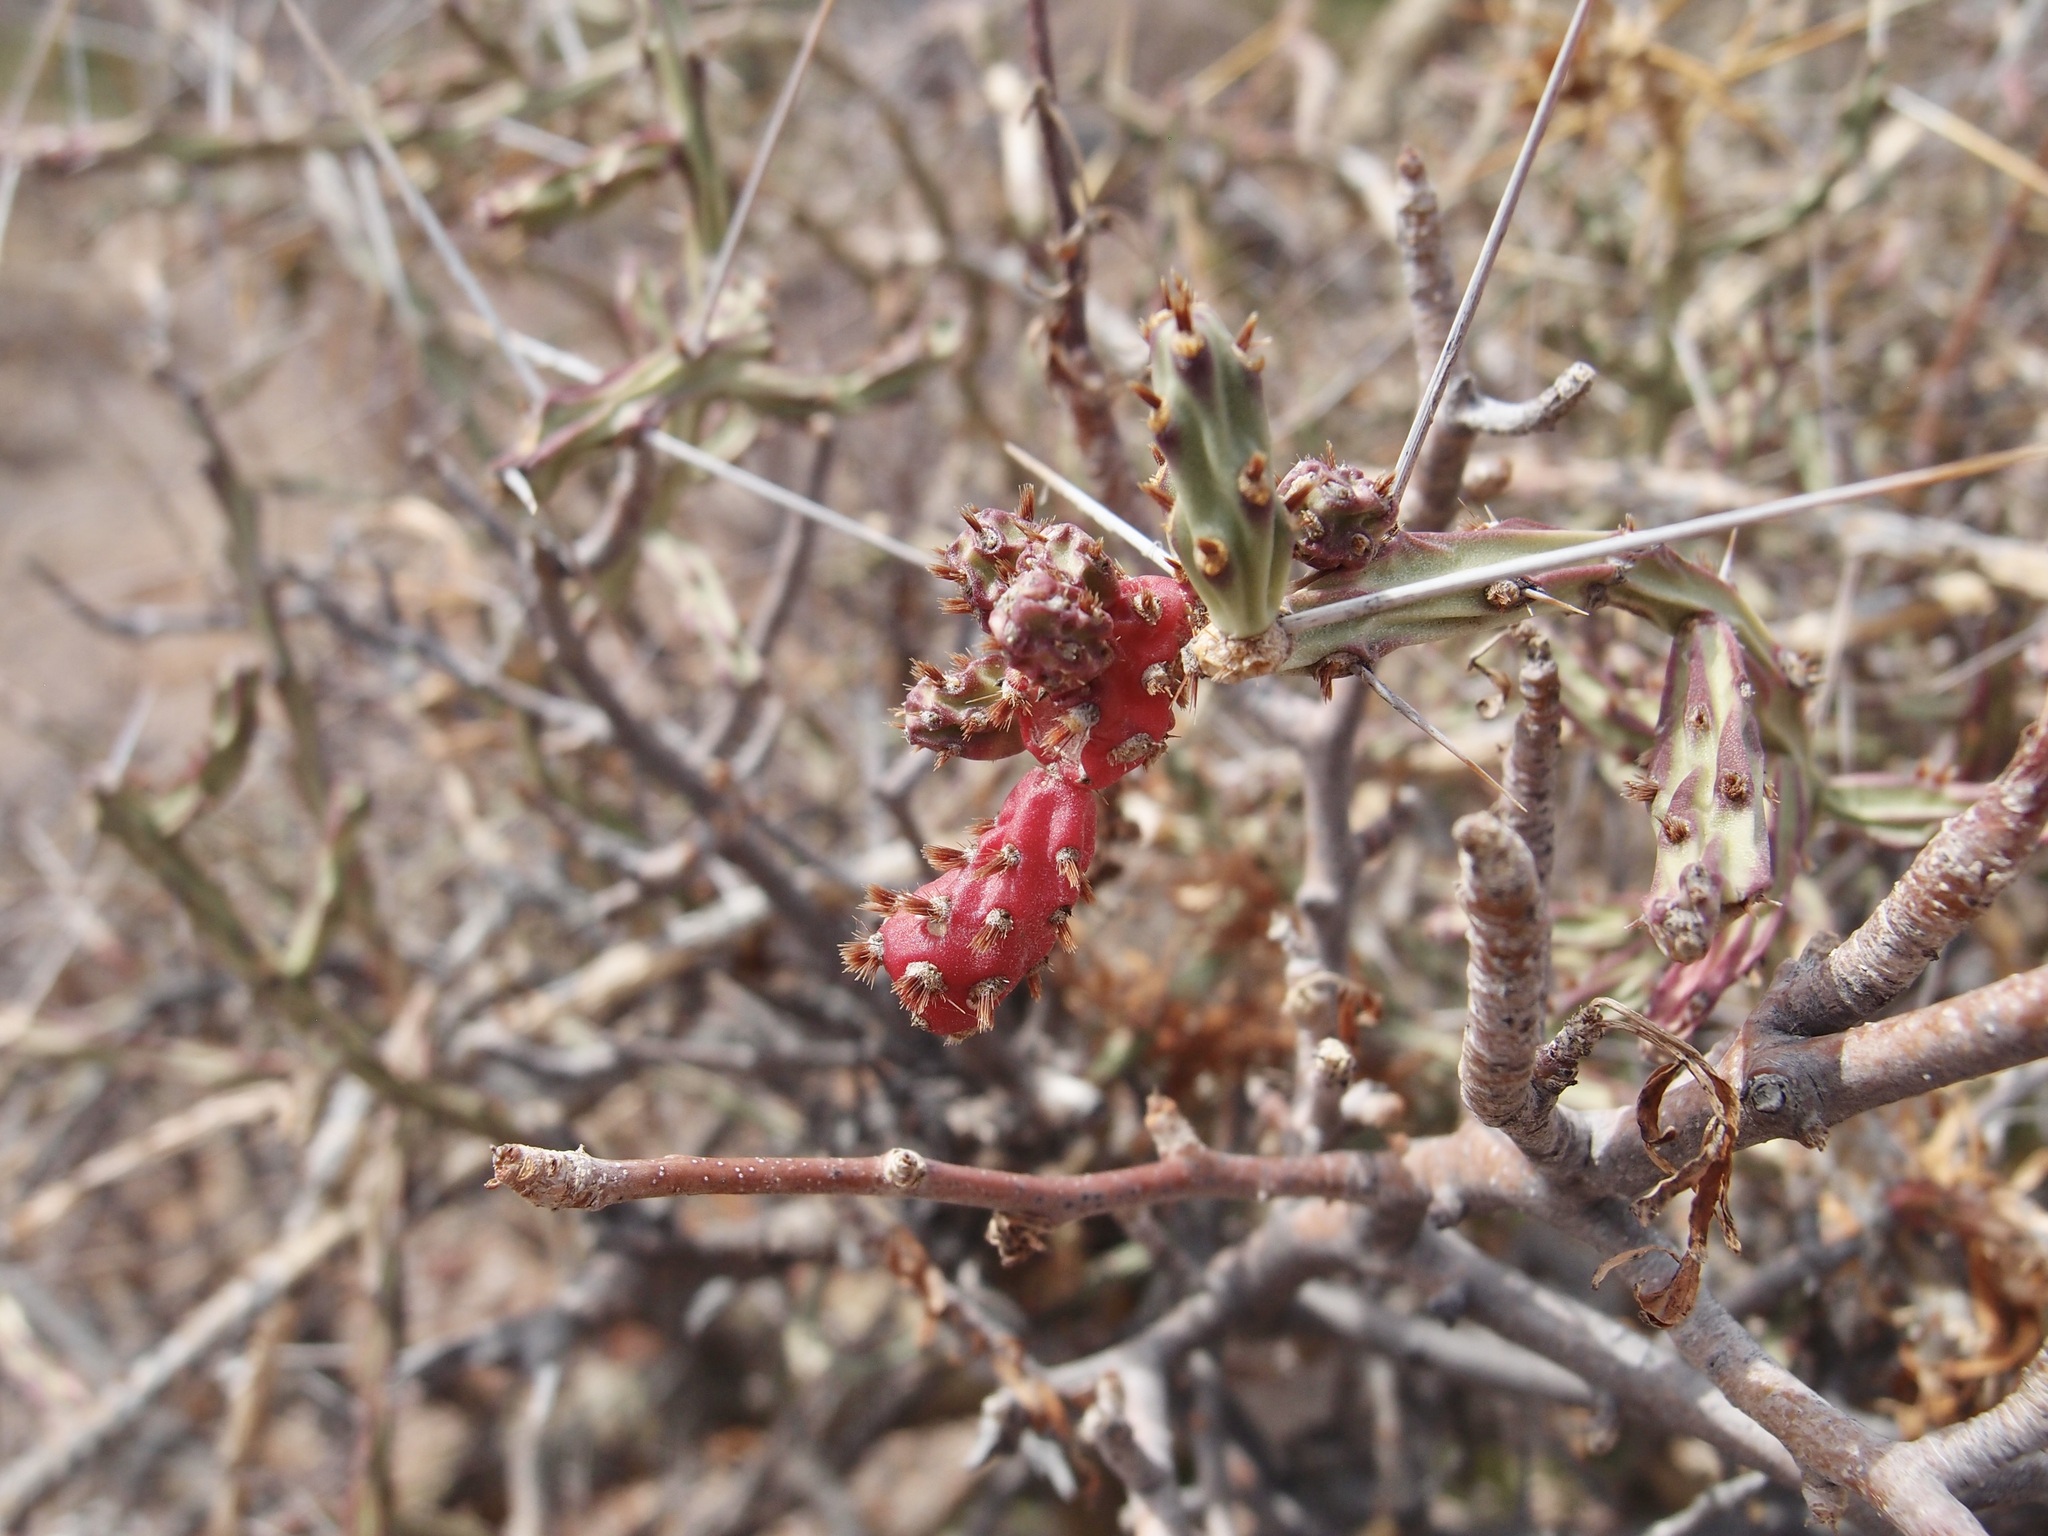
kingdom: Plantae
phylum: Tracheophyta
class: Magnoliopsida
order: Caryophyllales
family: Cactaceae
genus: Cylindropuntia
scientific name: Cylindropuntia leptocaulis
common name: Christmas cactus
